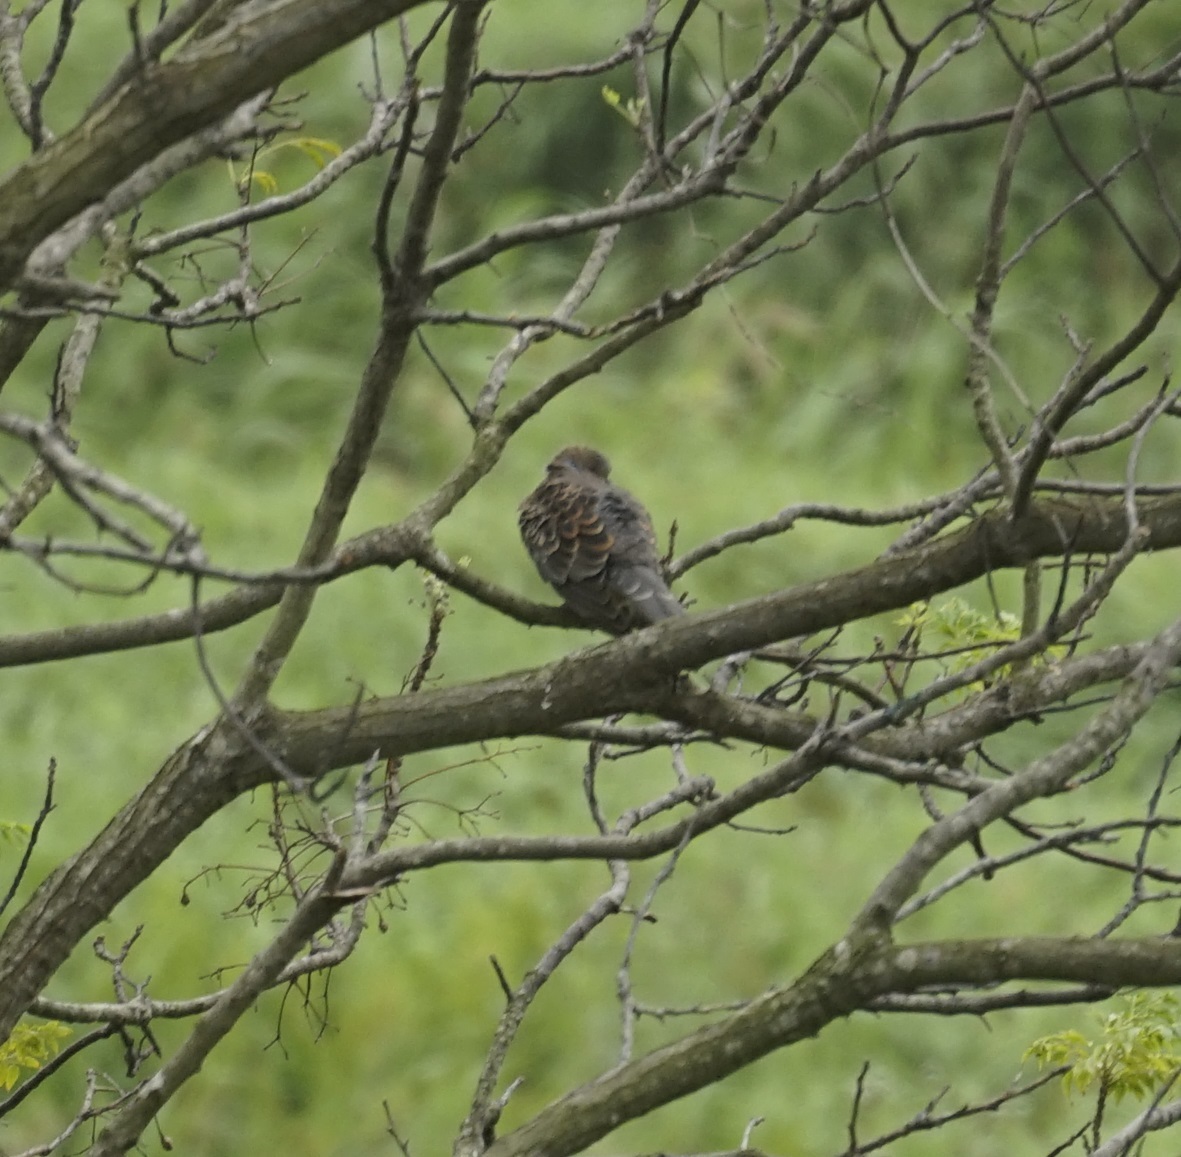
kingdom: Animalia
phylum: Chordata
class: Aves
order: Columbiformes
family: Columbidae
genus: Streptopelia
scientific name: Streptopelia orientalis
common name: Oriental turtle dove
